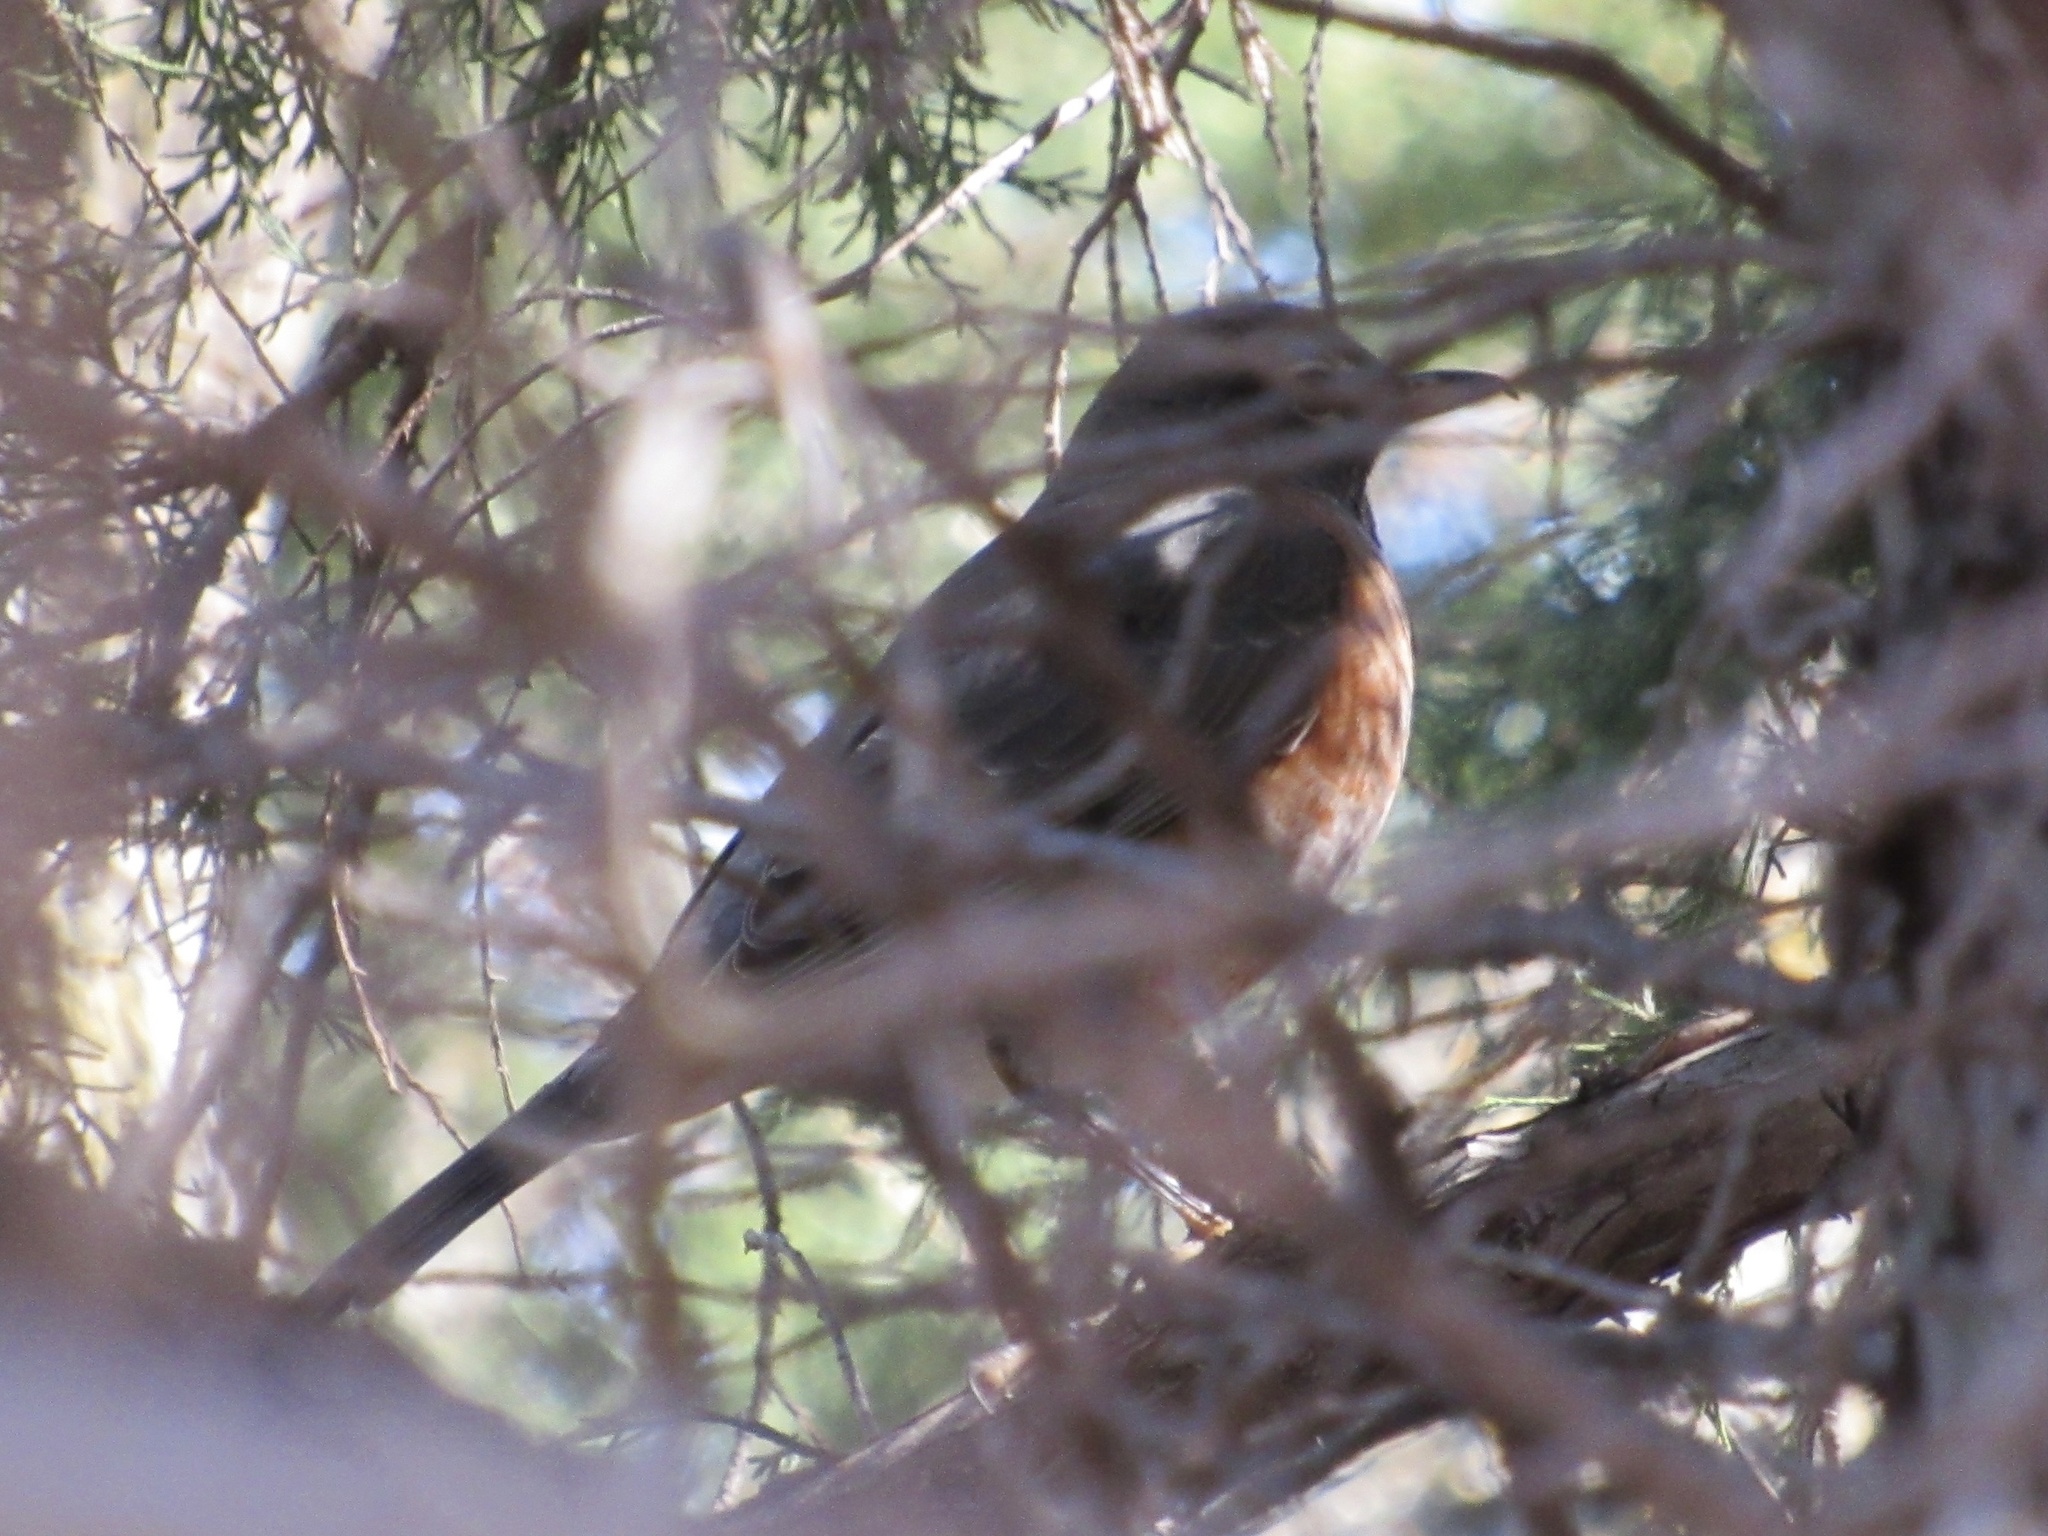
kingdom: Animalia
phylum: Chordata
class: Aves
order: Passeriformes
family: Turdidae
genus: Turdus
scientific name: Turdus migratorius
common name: American robin
